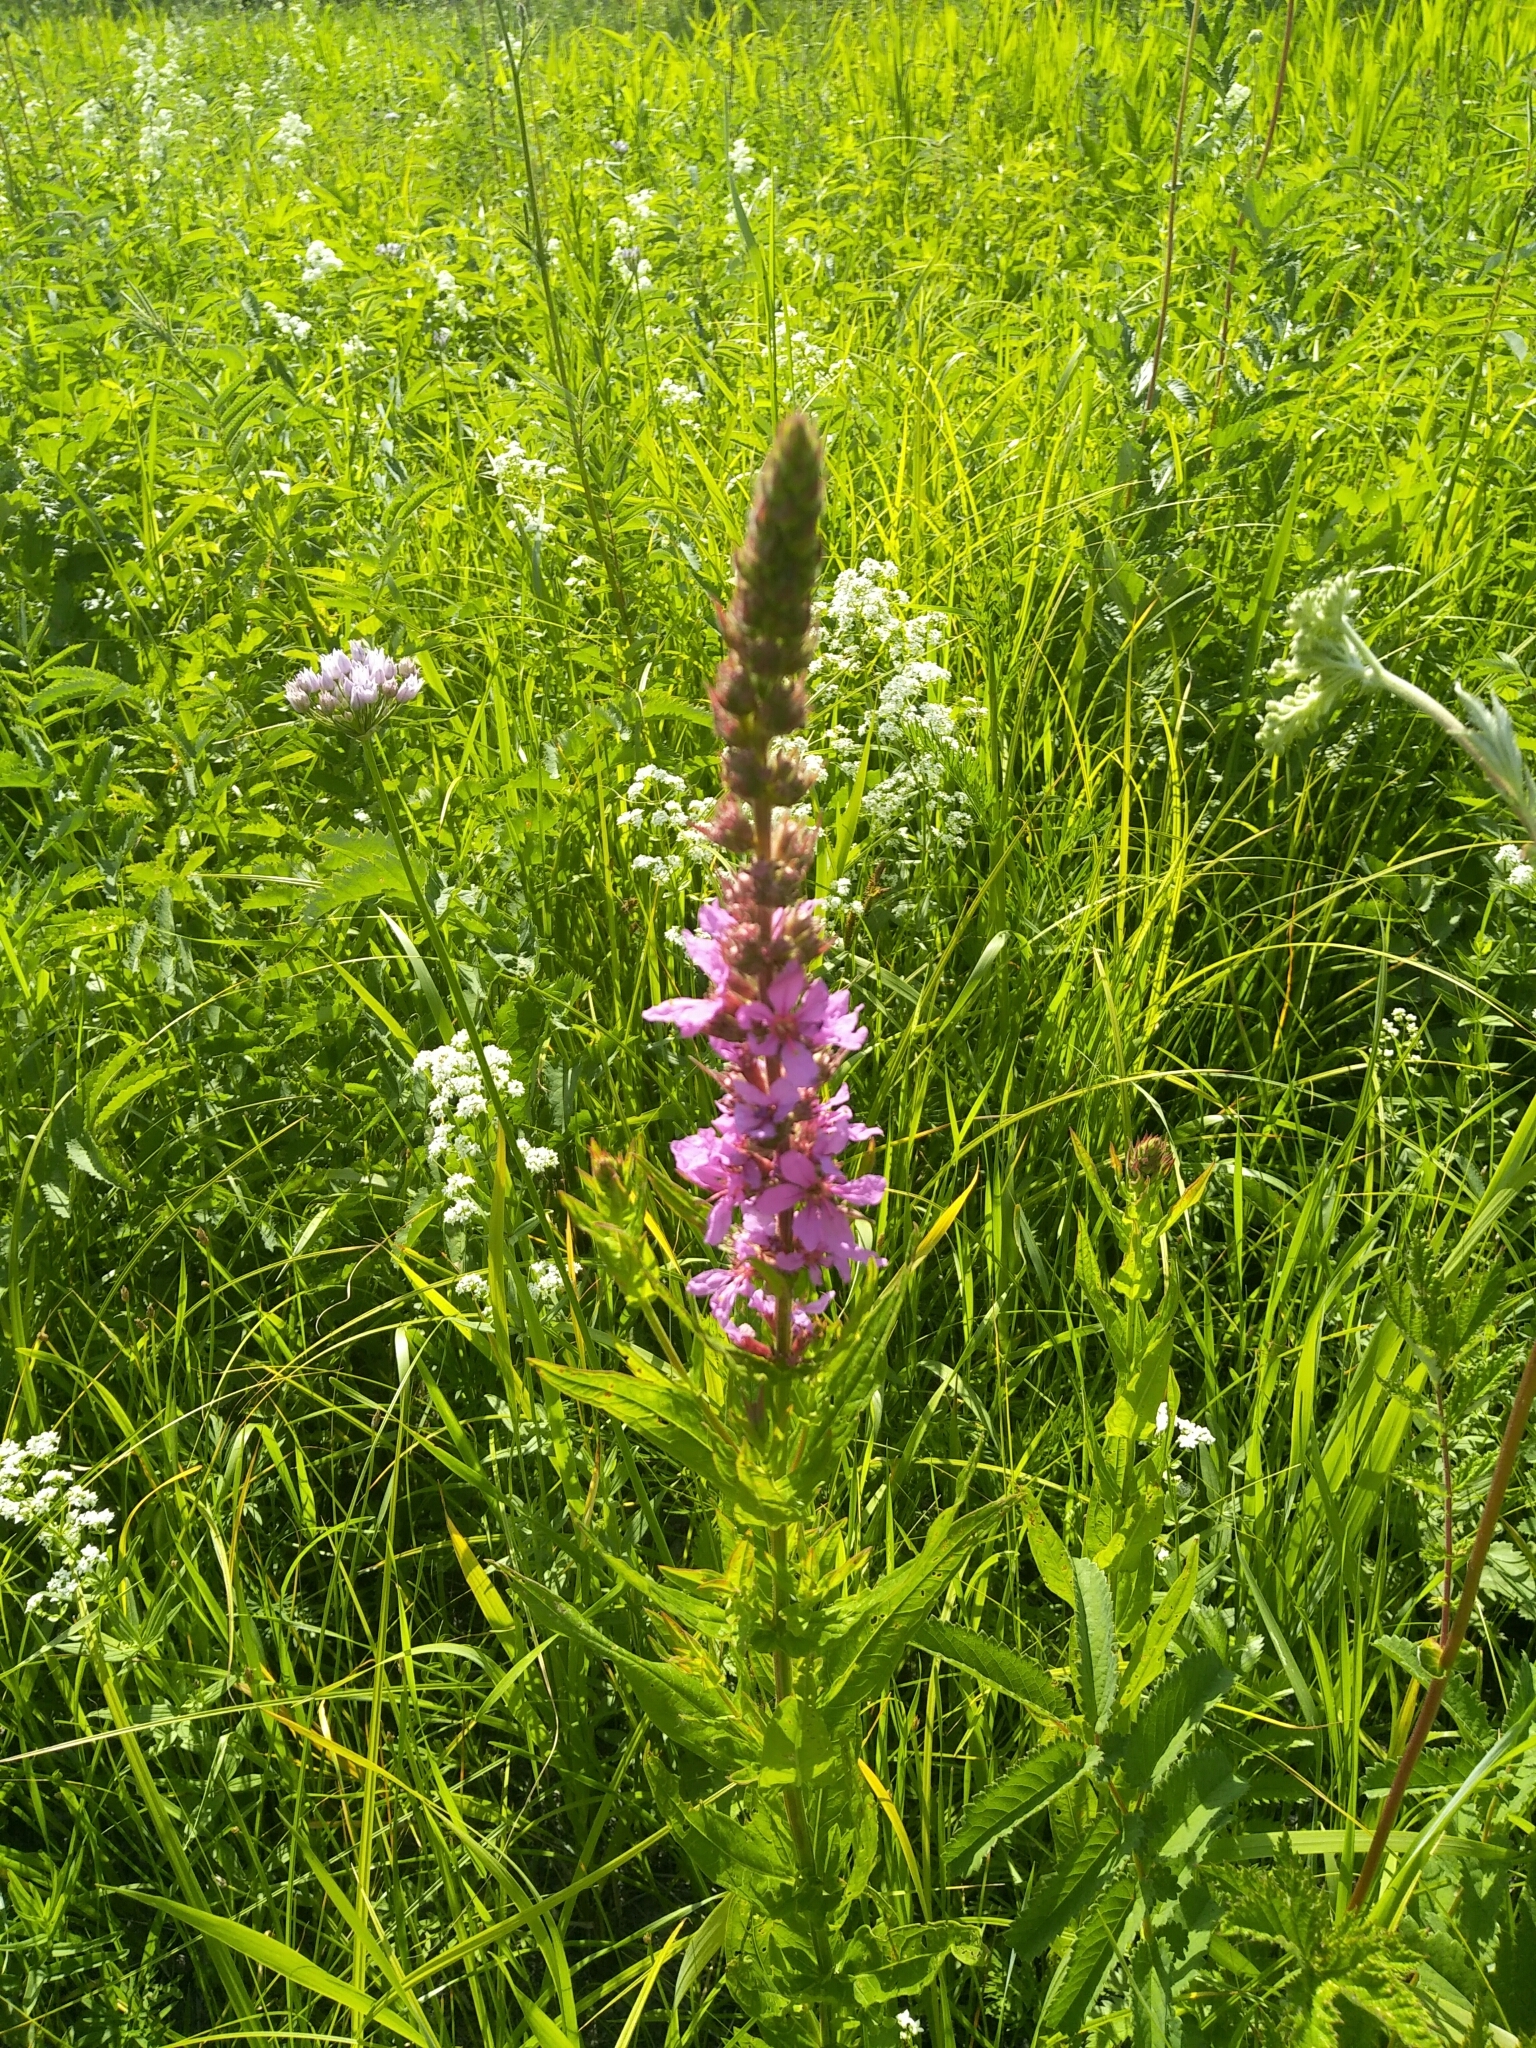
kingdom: Plantae
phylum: Tracheophyta
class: Magnoliopsida
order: Myrtales
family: Lythraceae
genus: Lythrum
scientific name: Lythrum salicaria
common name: Purple loosestrife
